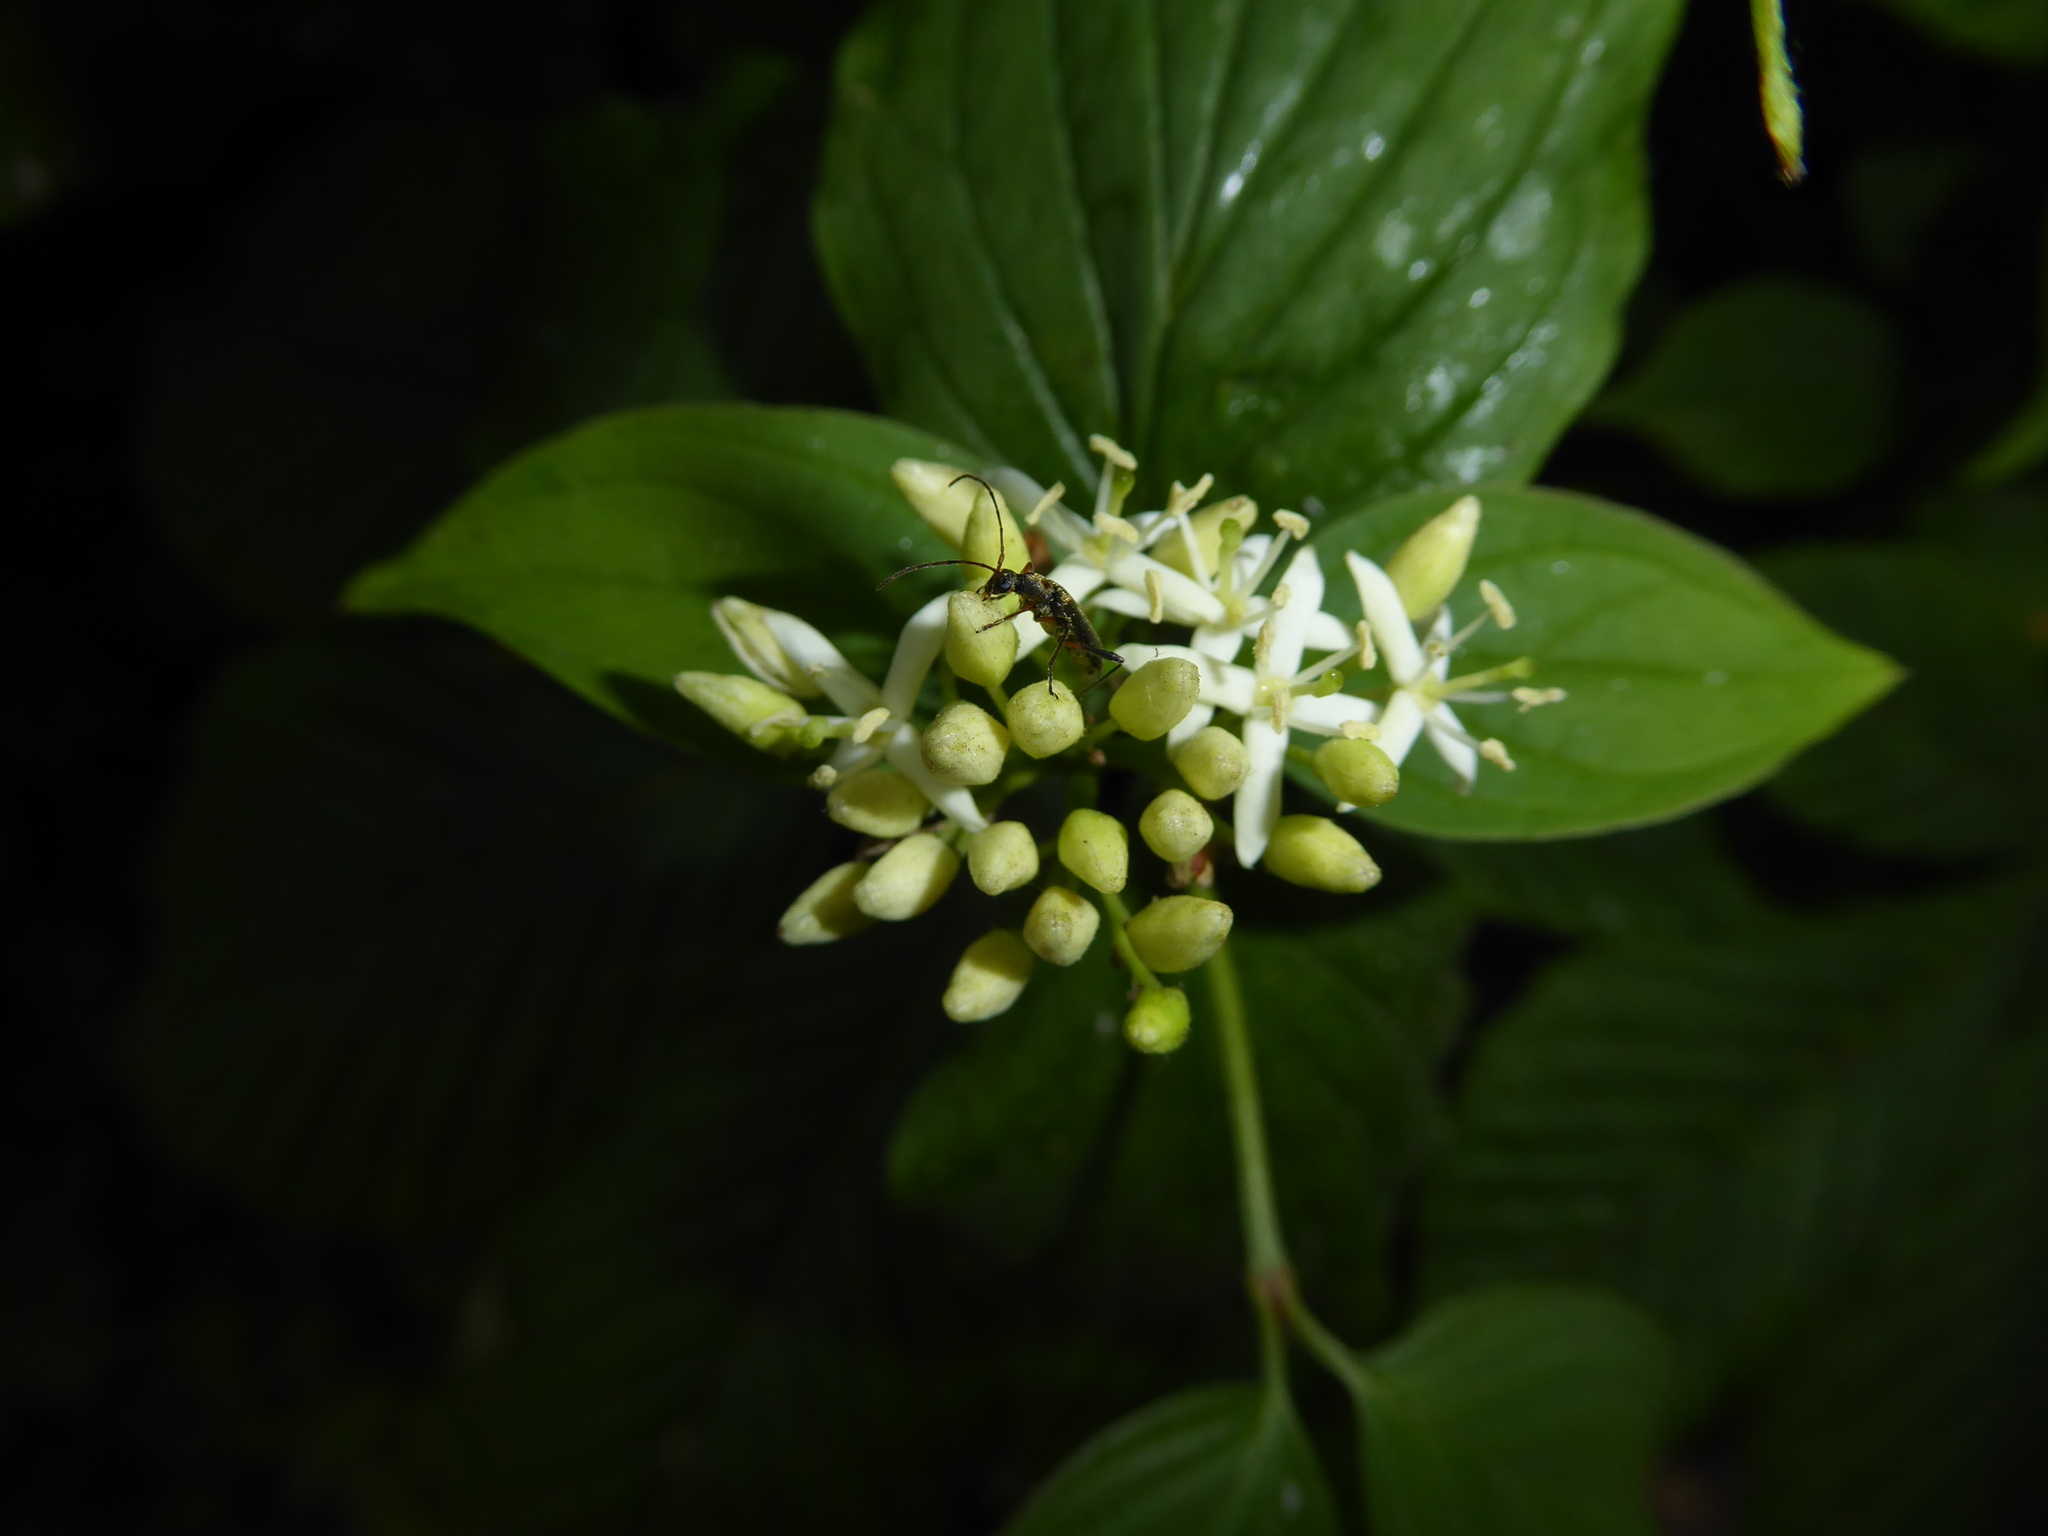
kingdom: Animalia
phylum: Arthropoda
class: Insecta
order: Coleoptera
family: Cerambycidae
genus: Grammoptera
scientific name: Grammoptera ruficornis
